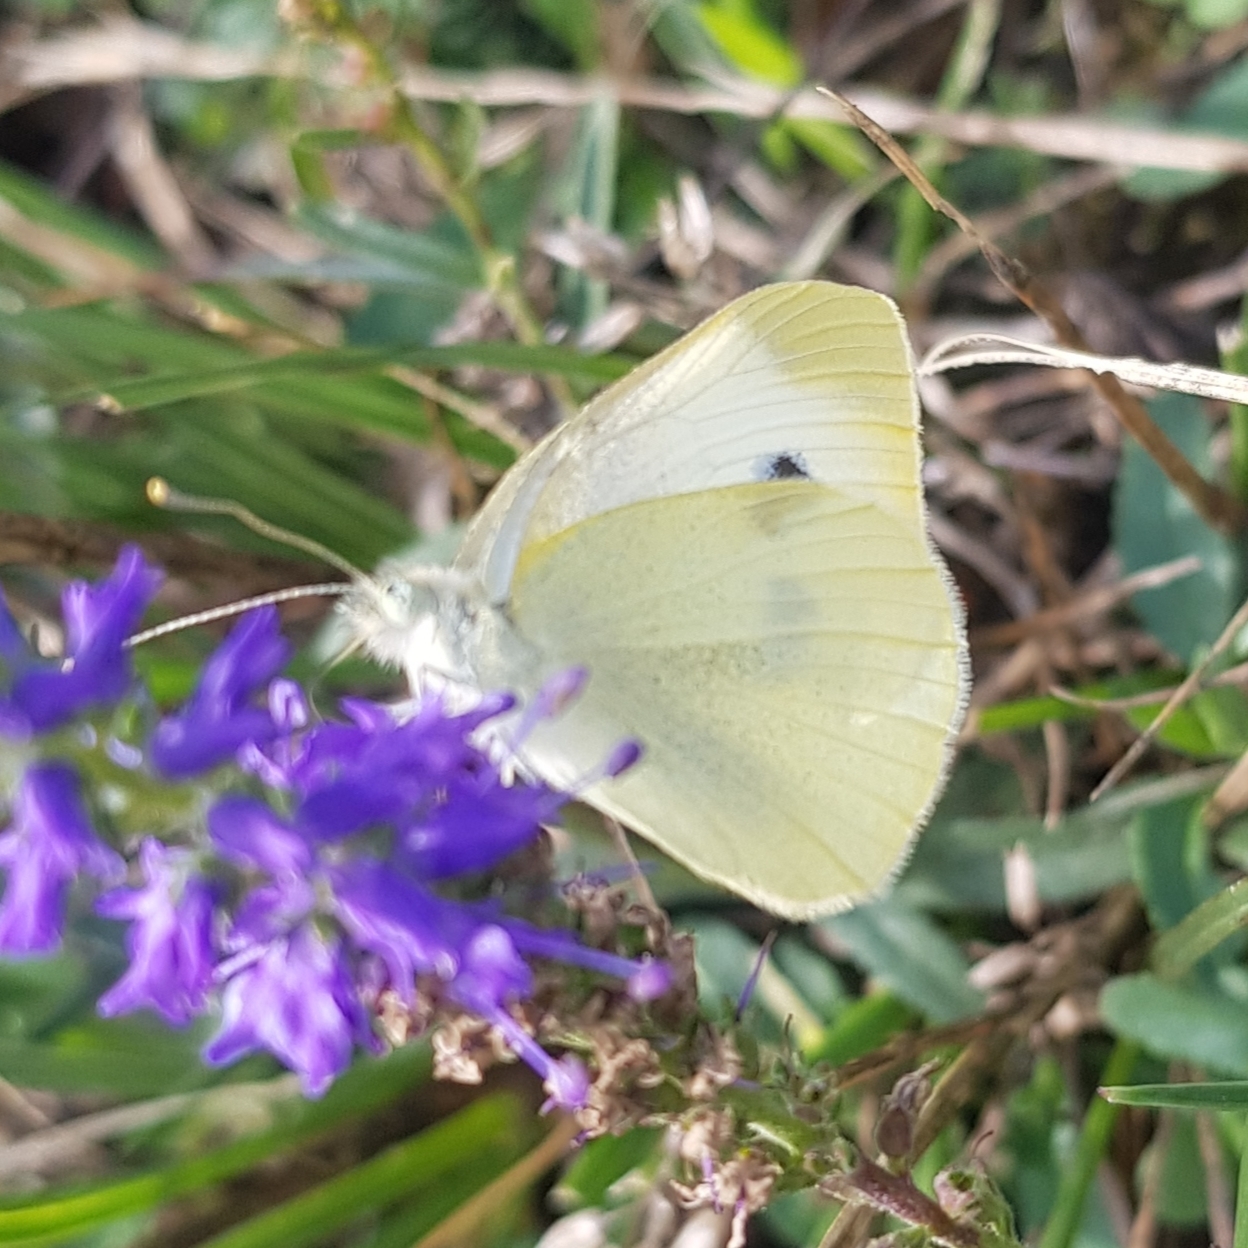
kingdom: Animalia
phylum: Arthropoda
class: Insecta
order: Lepidoptera
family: Pieridae
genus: Pieris
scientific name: Pieris rapae
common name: Small white
